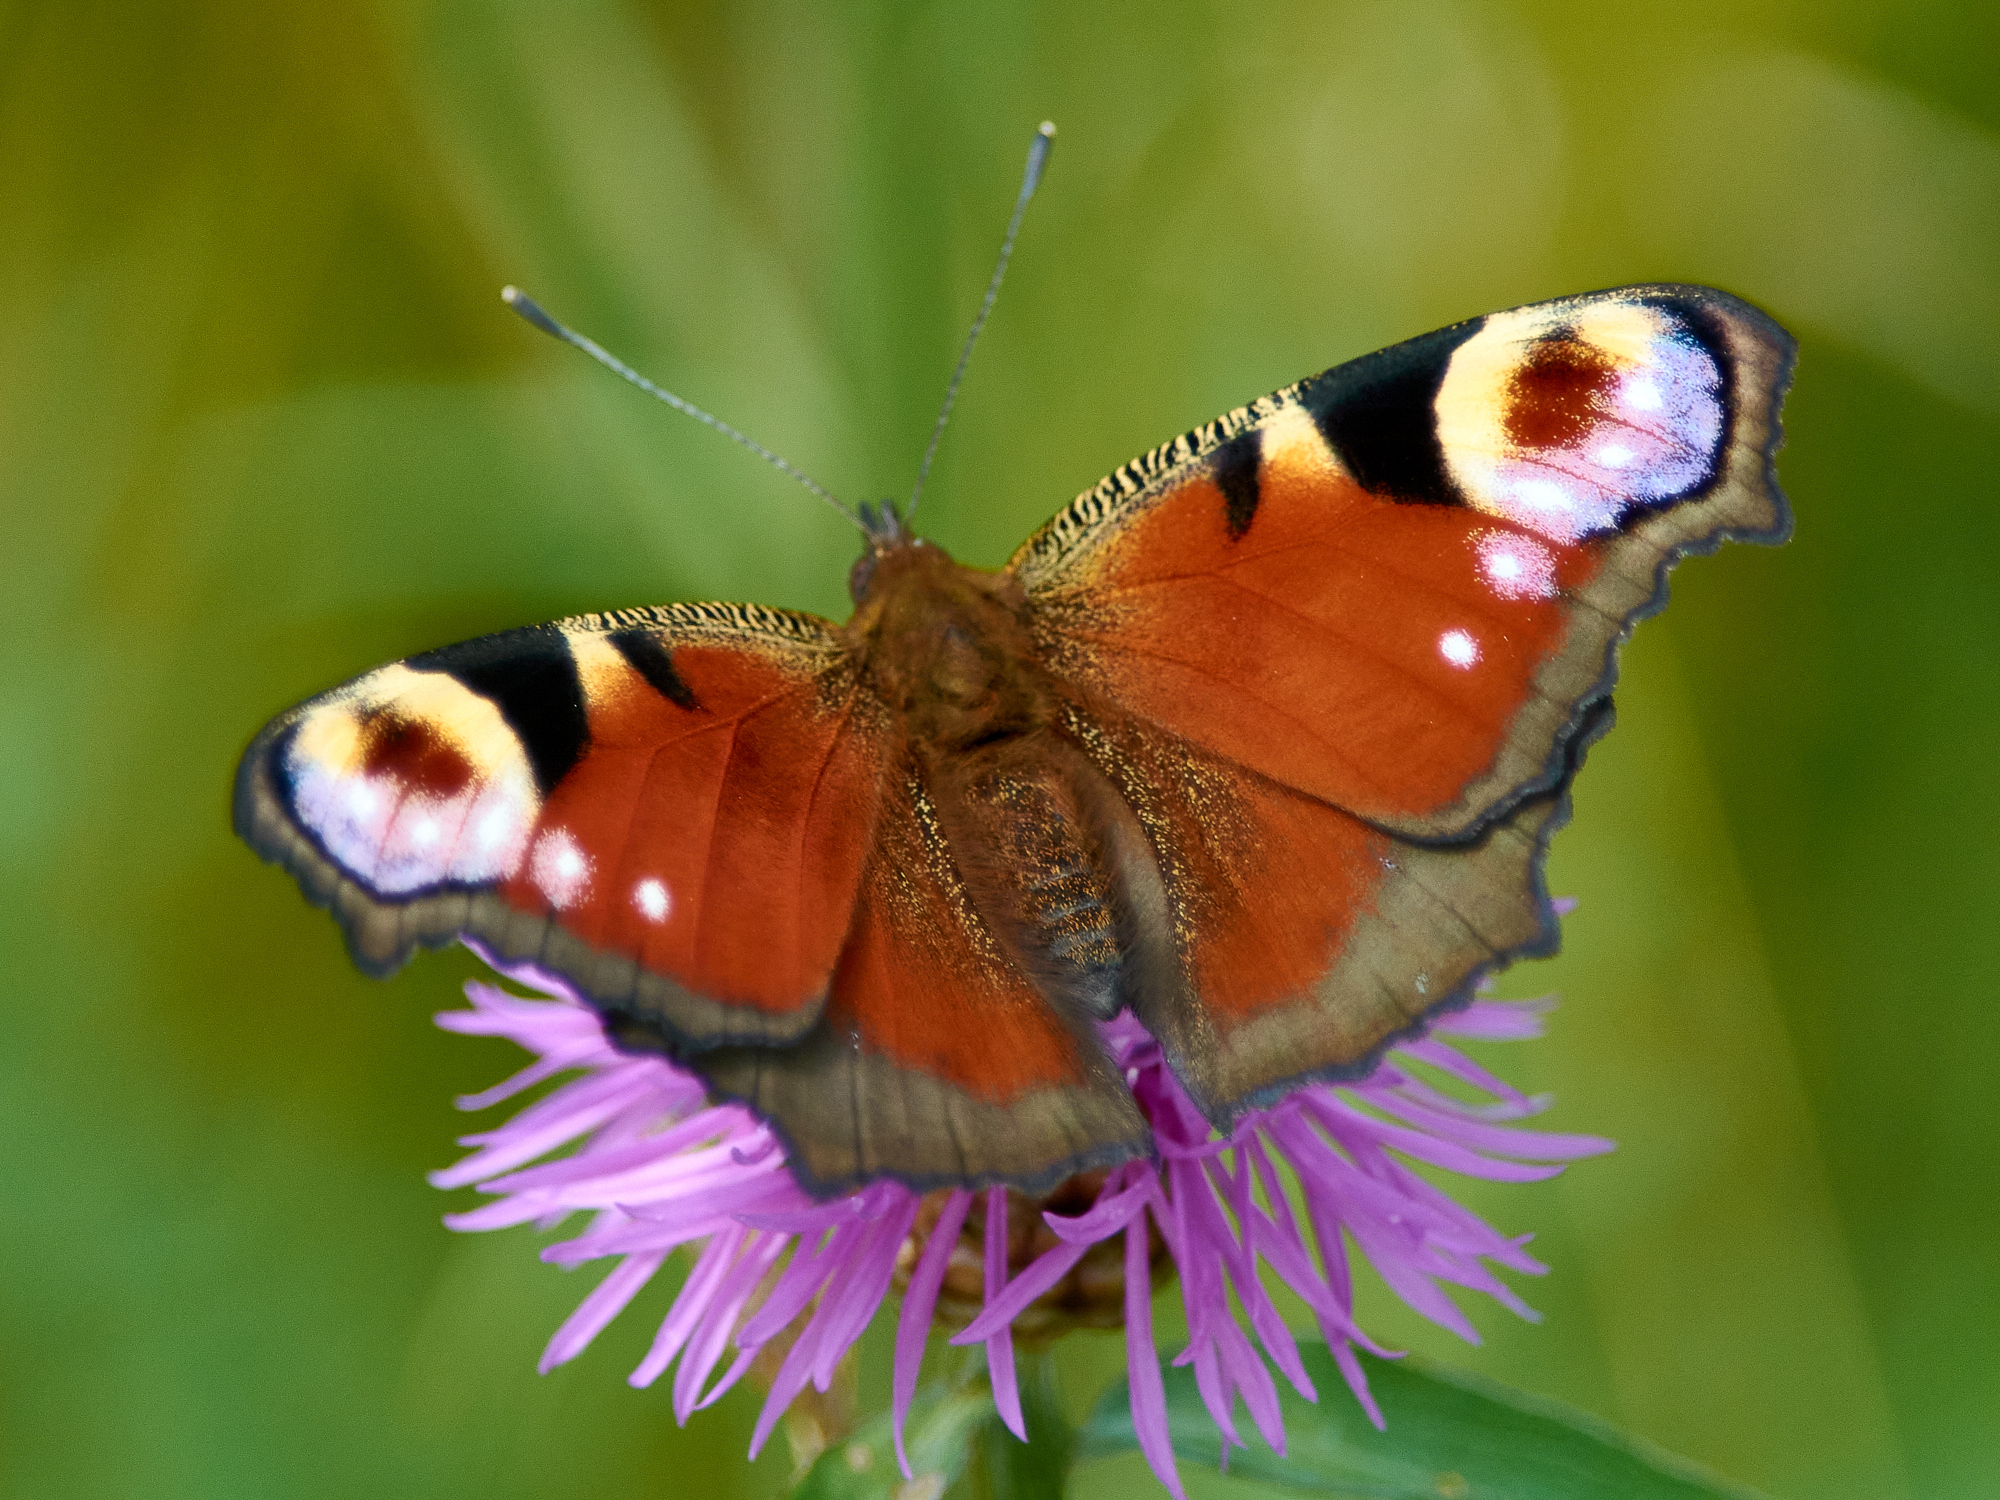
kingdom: Animalia
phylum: Arthropoda
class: Insecta
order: Lepidoptera
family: Nymphalidae
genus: Aglais
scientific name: Aglais io
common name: Peacock
